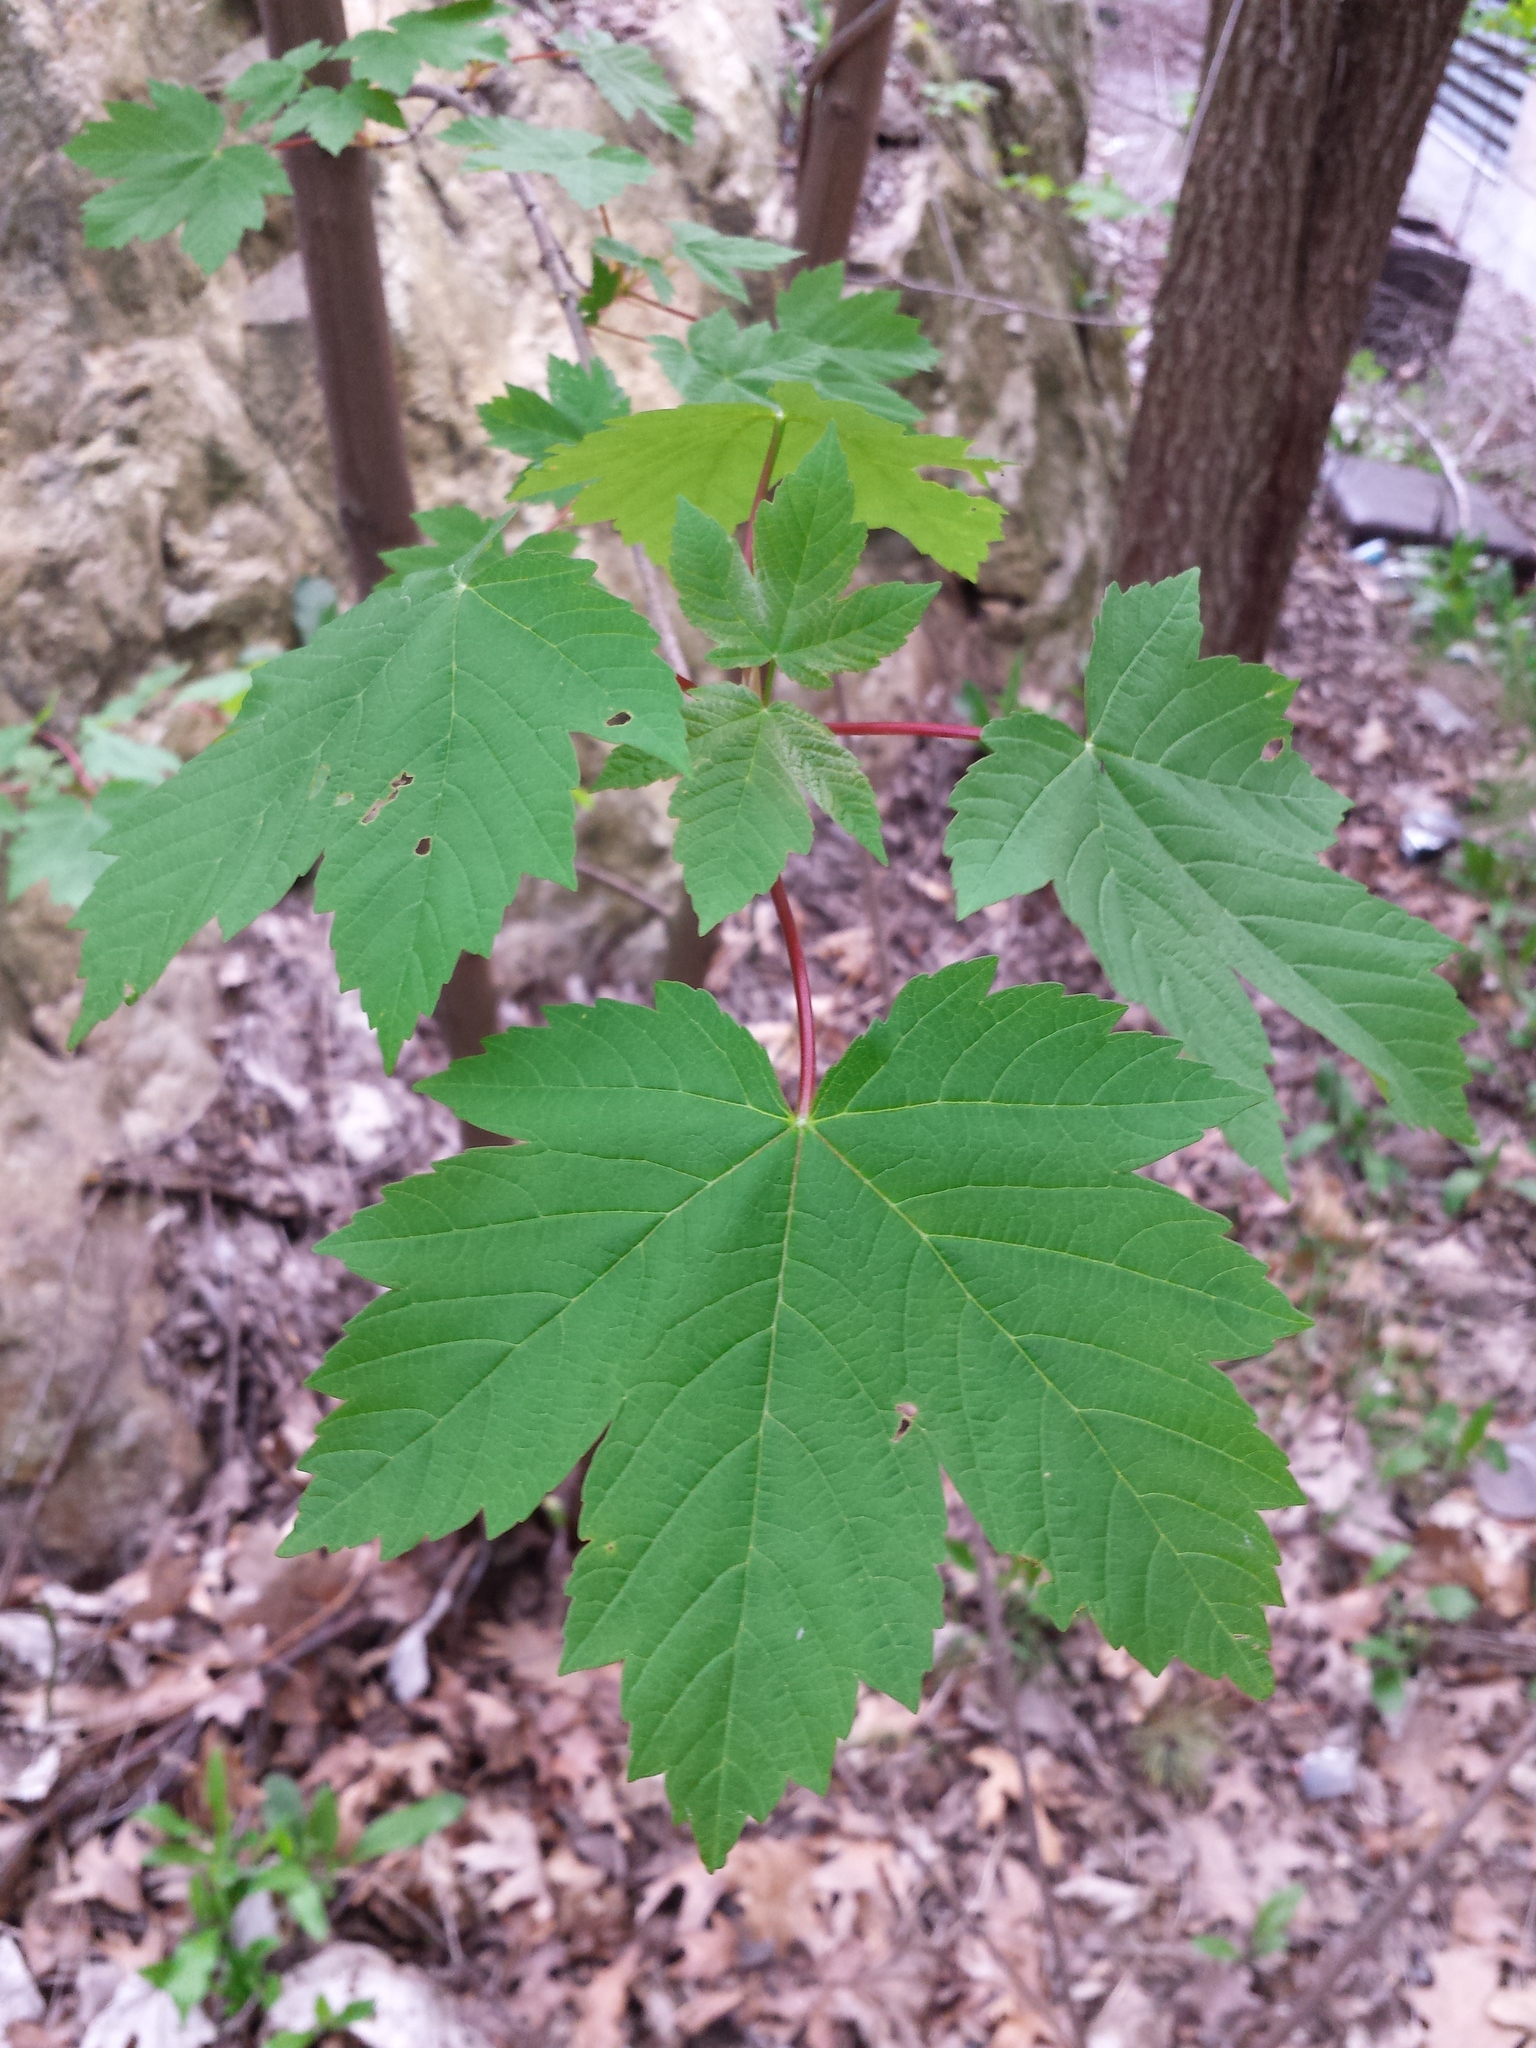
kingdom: Plantae
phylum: Tracheophyta
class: Magnoliopsida
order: Sapindales
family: Sapindaceae
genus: Acer
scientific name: Acer pseudoplatanus
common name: Sycamore
